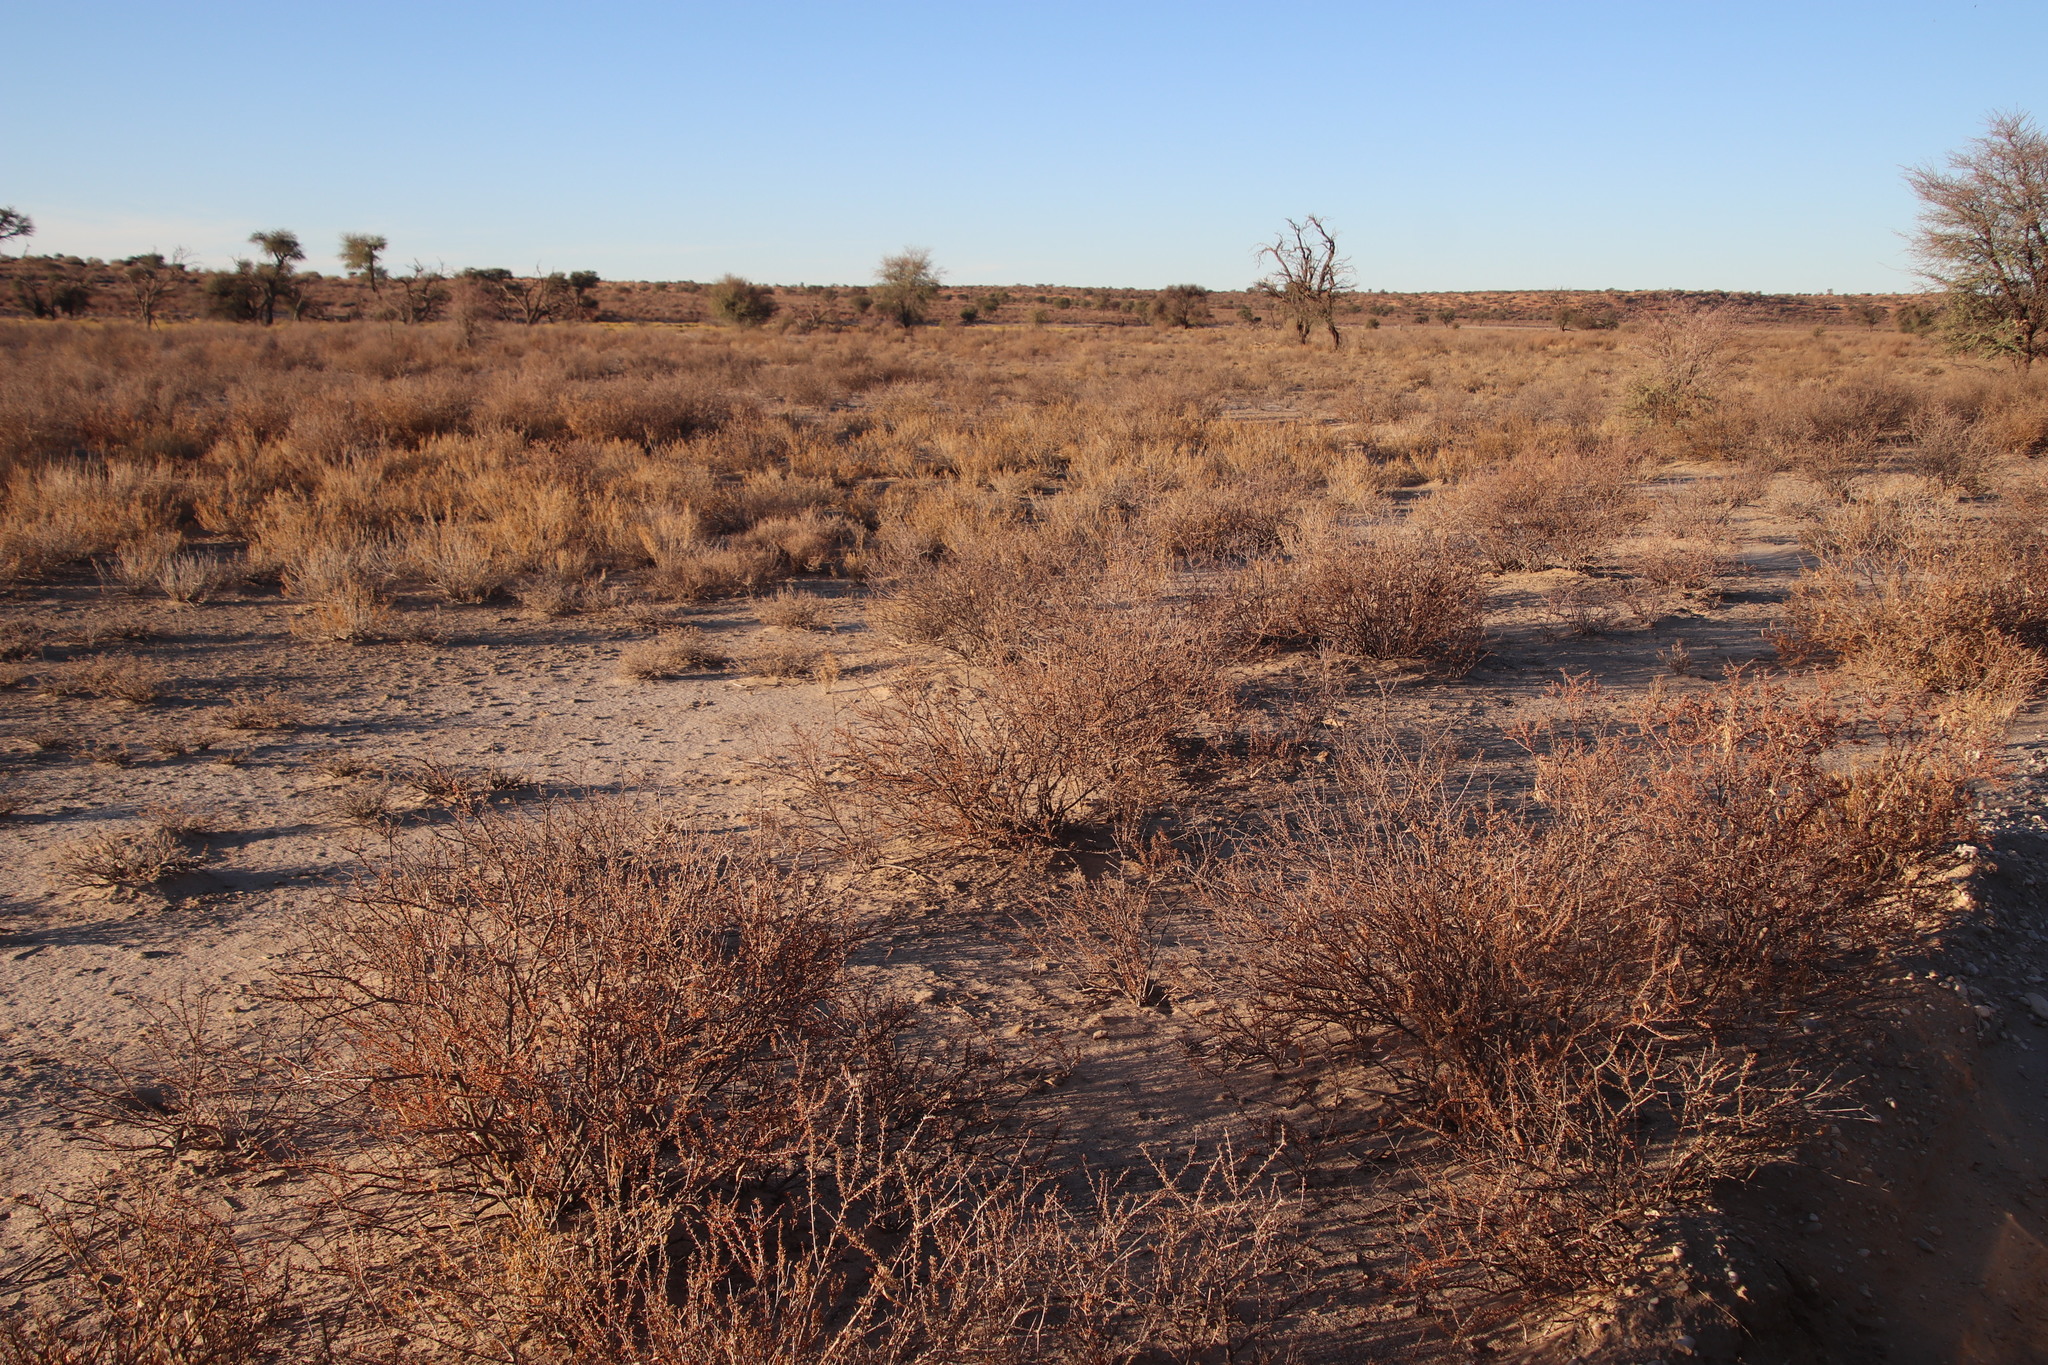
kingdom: Plantae
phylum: Tracheophyta
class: Magnoliopsida
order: Lamiales
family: Bignoniaceae
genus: Rhigozum
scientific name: Rhigozum trichotomum
